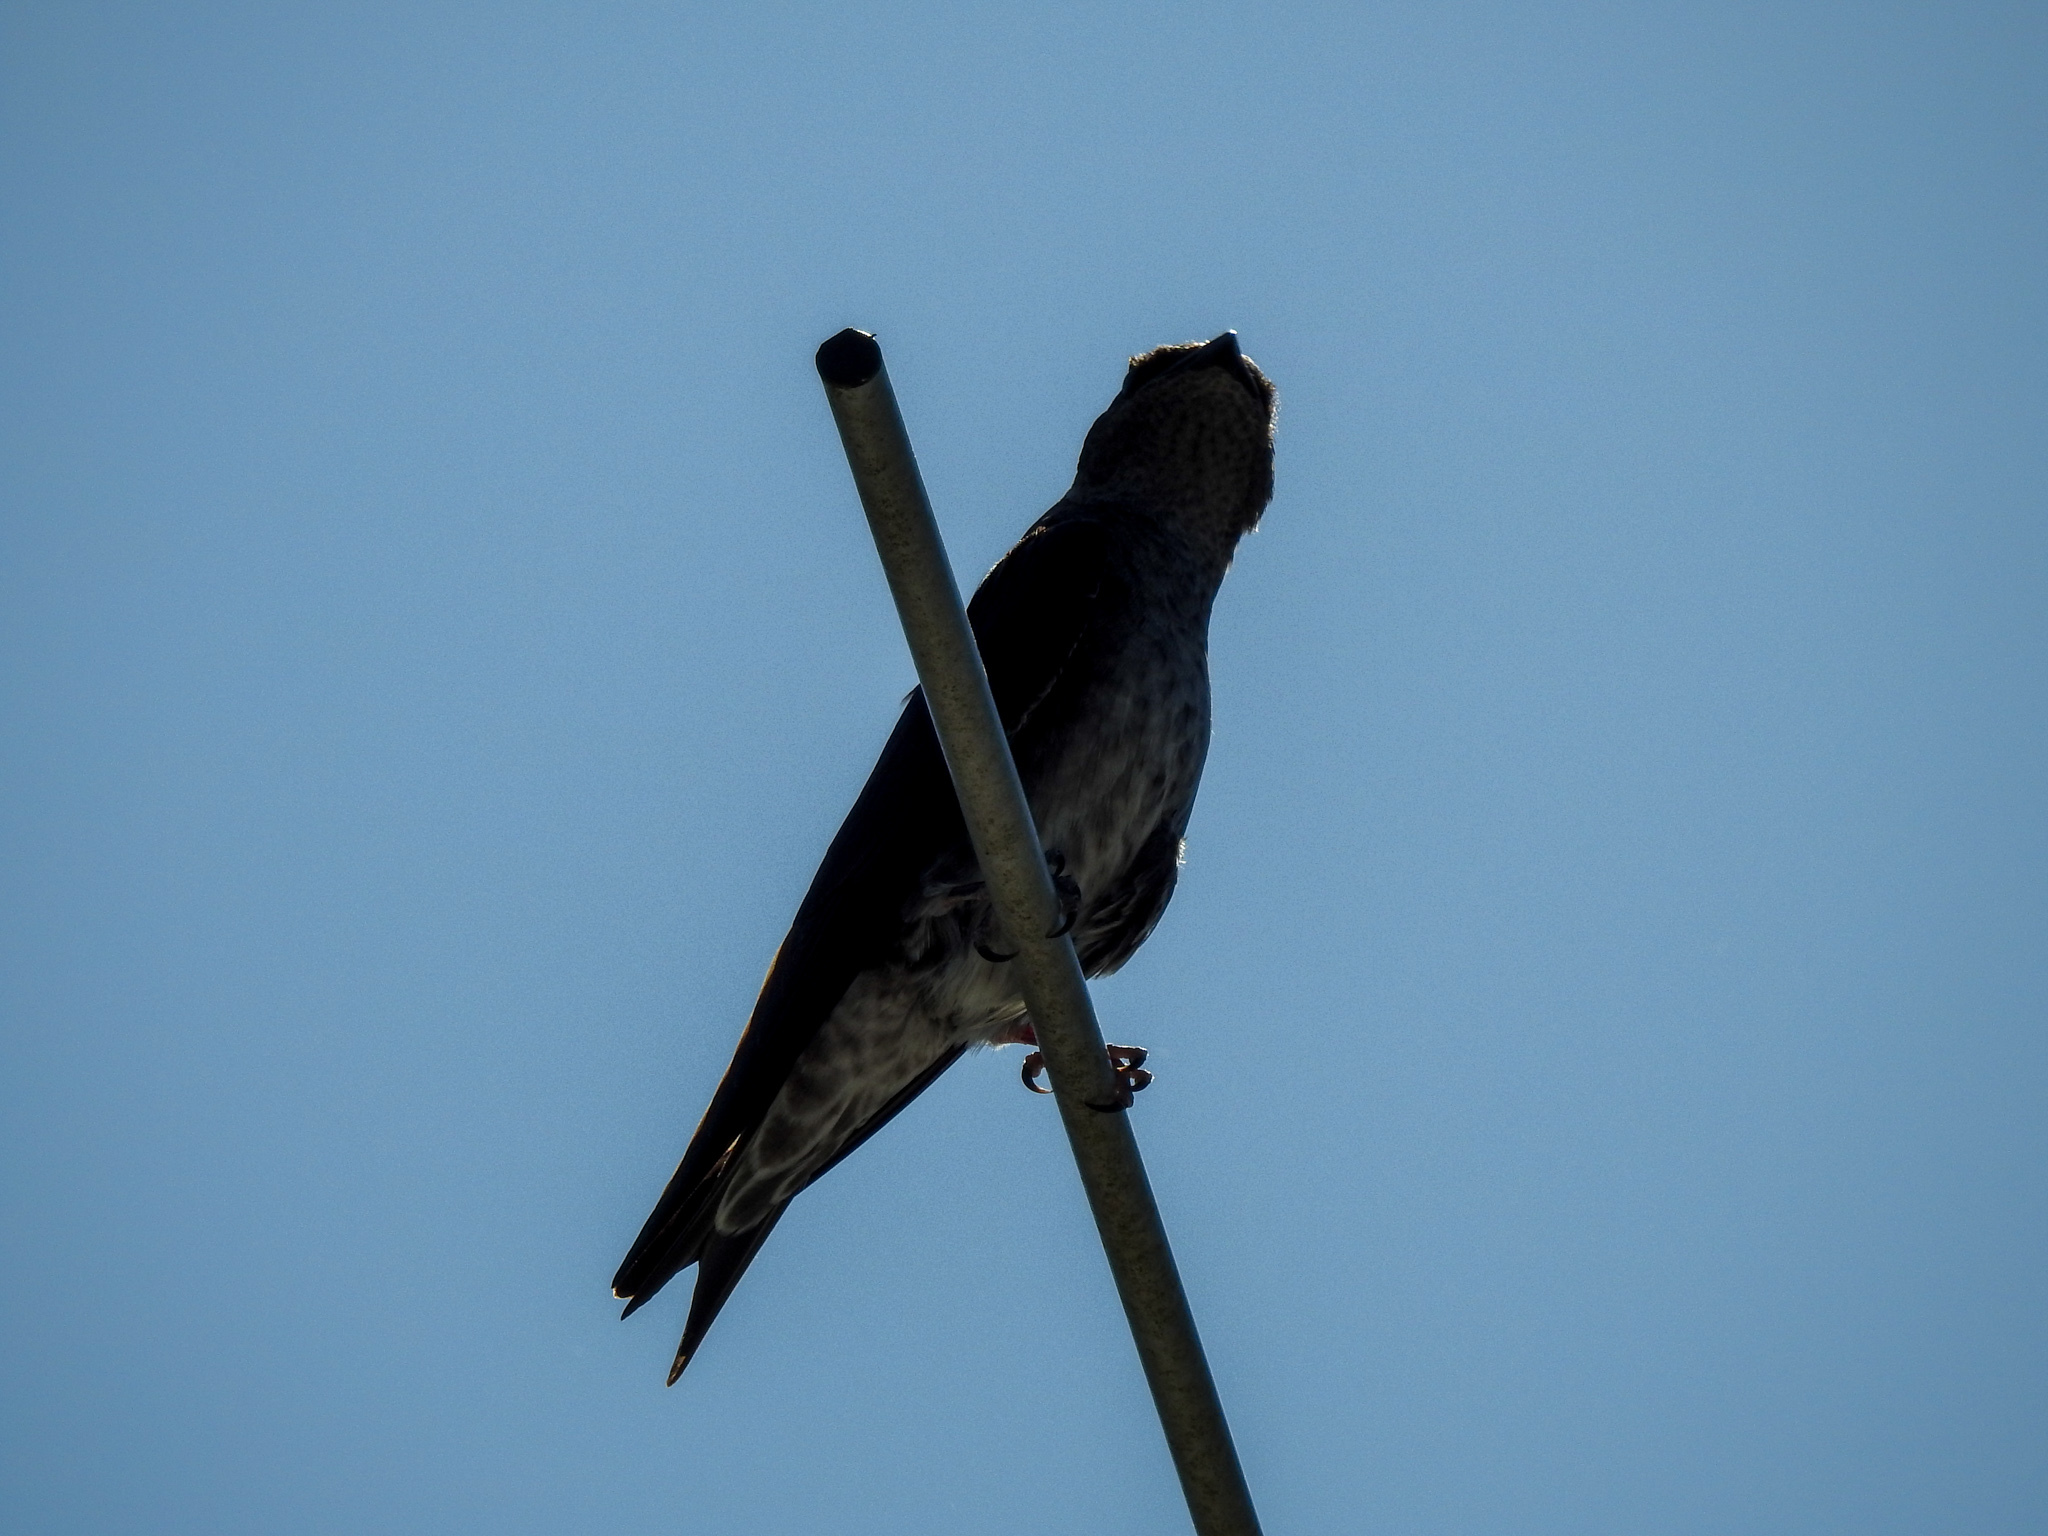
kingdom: Animalia
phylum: Chordata
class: Aves
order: Passeriformes
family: Hirundinidae
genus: Progne
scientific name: Progne subis
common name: Purple martin
